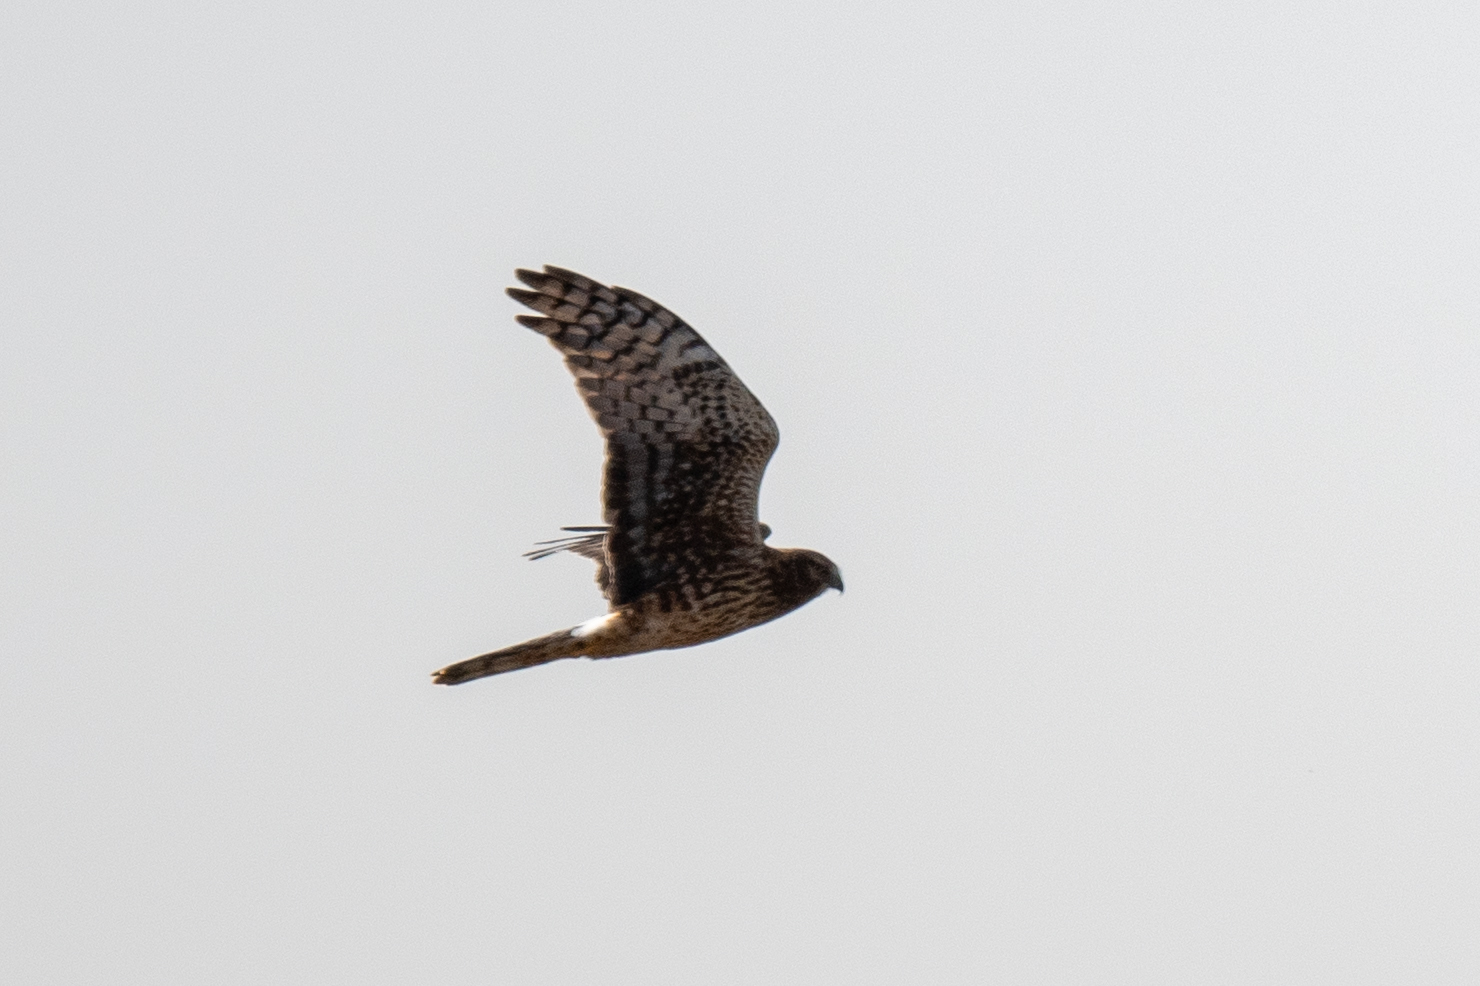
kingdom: Animalia
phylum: Chordata
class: Aves
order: Accipitriformes
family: Accipitridae
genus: Circus
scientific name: Circus cyaneus
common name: Hen harrier
